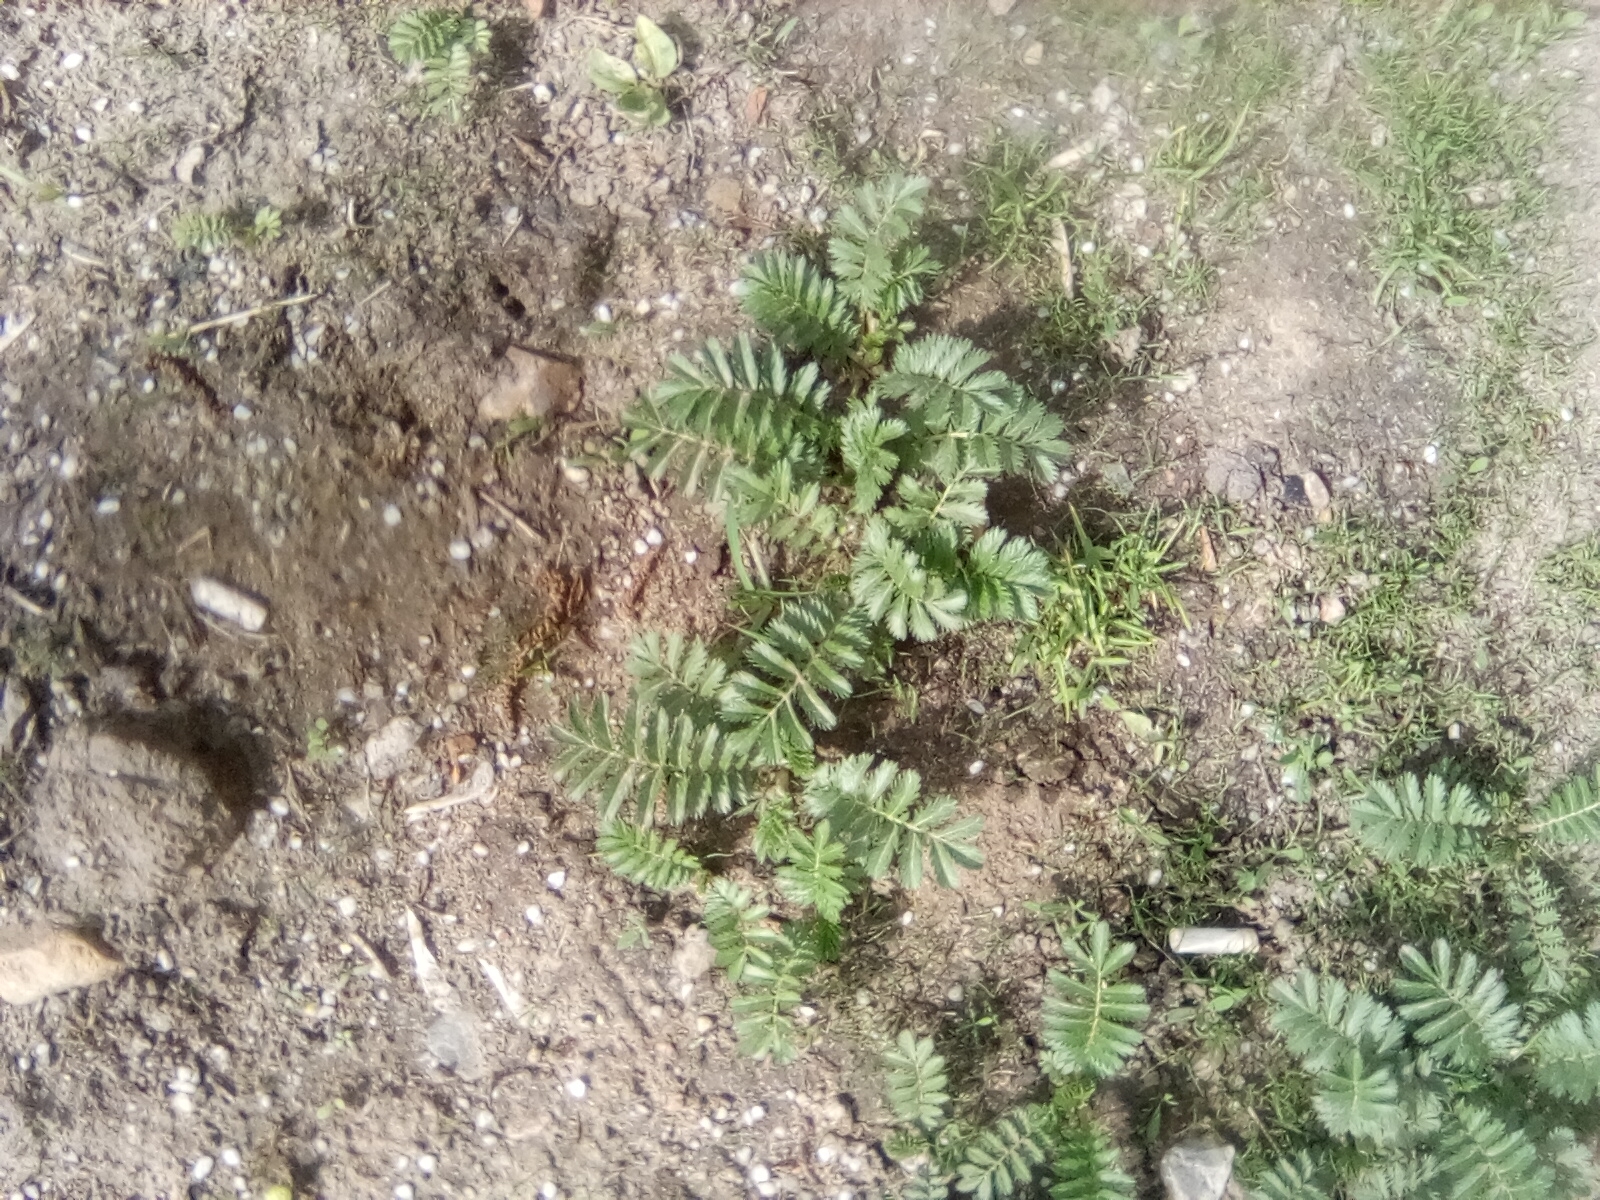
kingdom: Plantae
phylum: Tracheophyta
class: Magnoliopsida
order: Rosales
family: Rosaceae
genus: Argentina
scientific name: Argentina anserina
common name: Common silverweed
